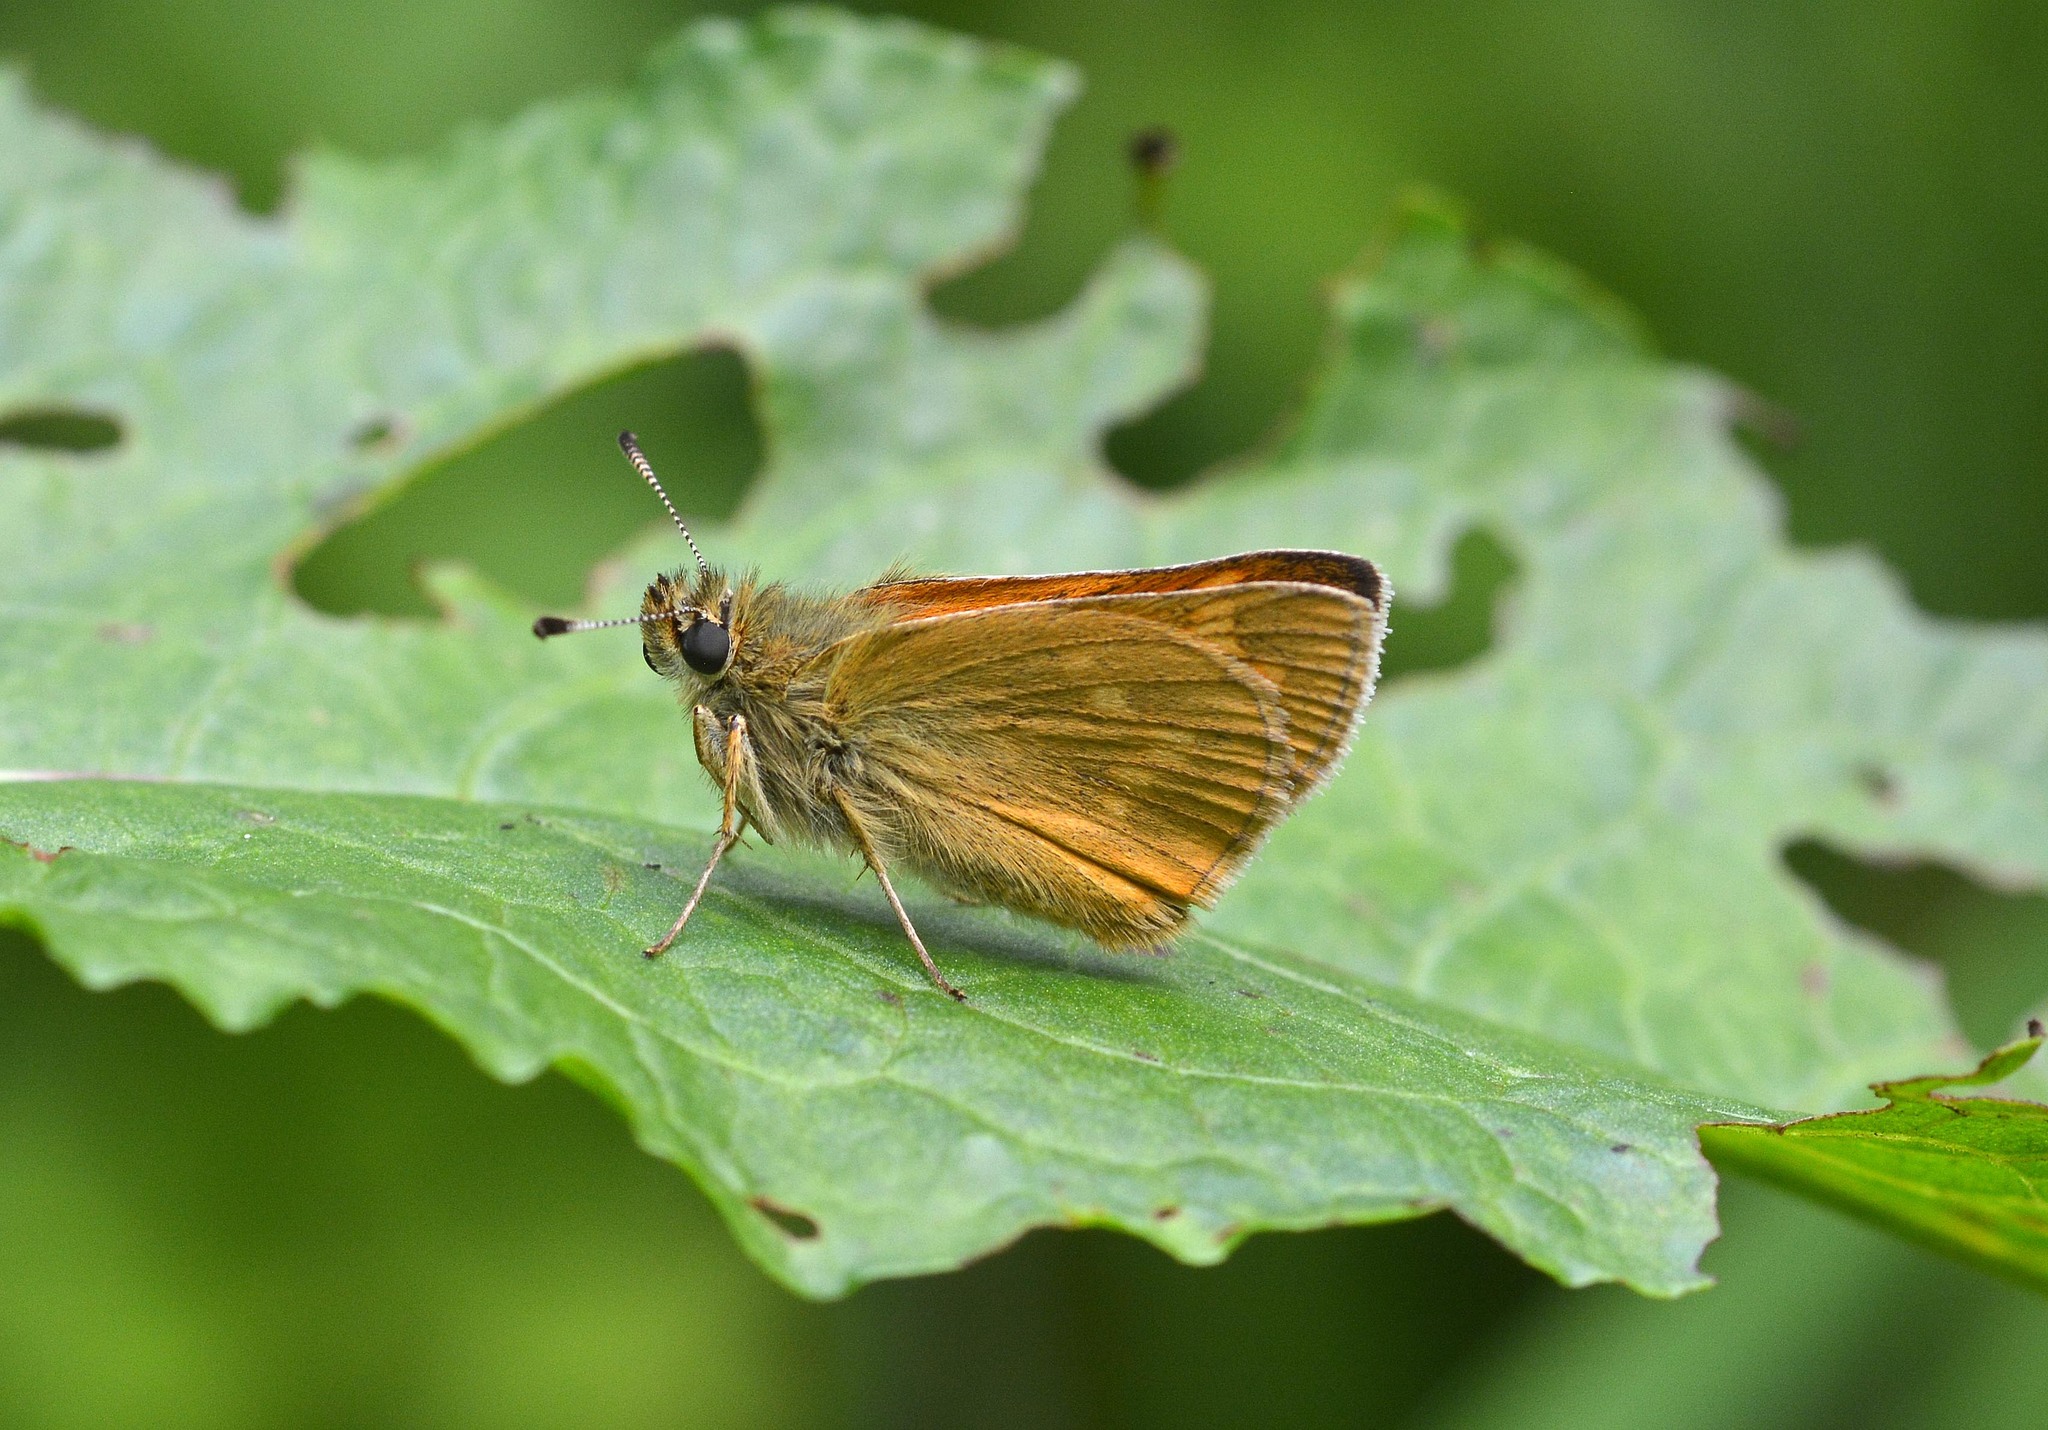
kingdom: Animalia
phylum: Arthropoda
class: Insecta
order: Lepidoptera
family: Hesperiidae
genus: Ochlodes
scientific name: Ochlodes venata
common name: Large skipper
